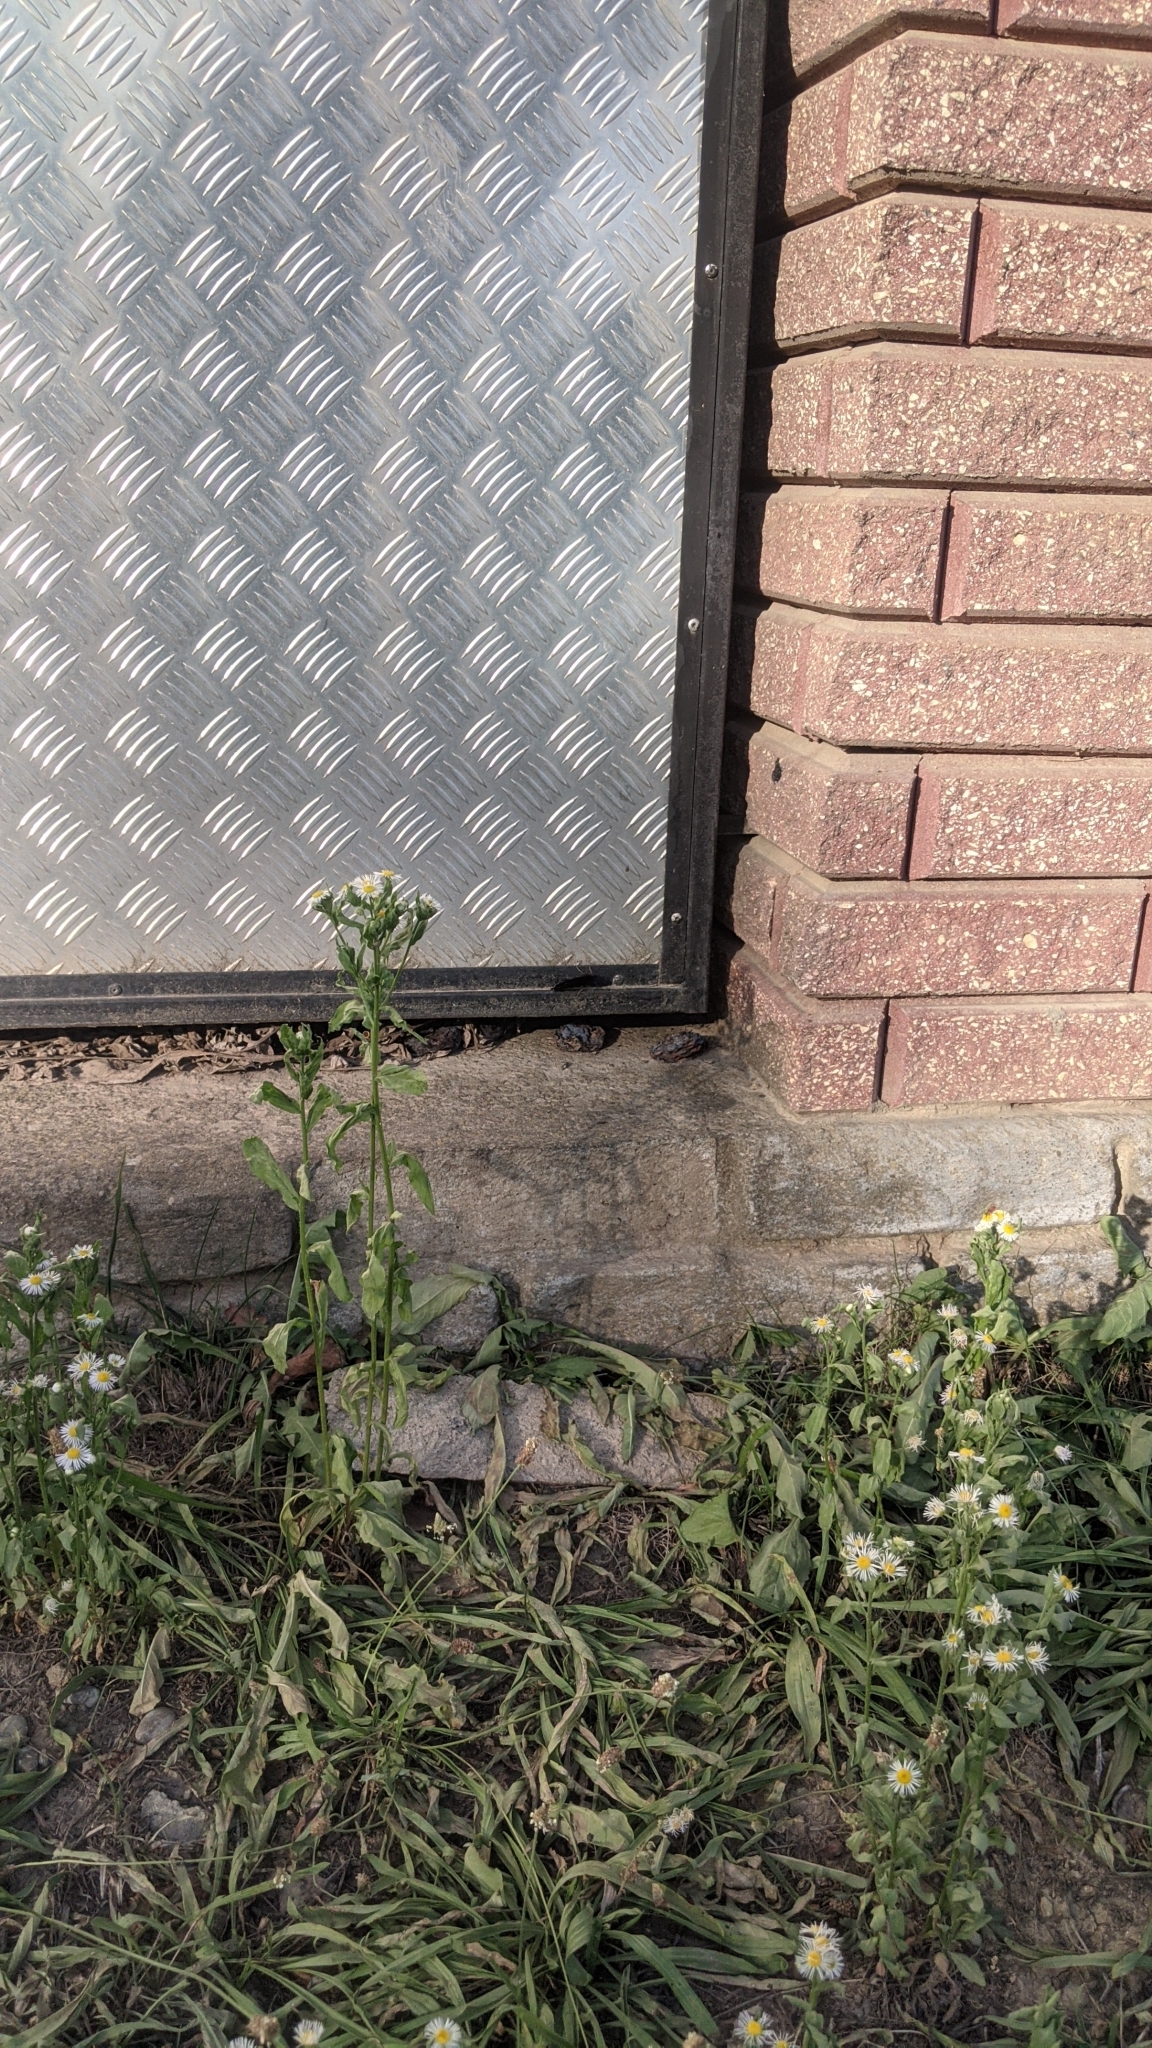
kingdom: Plantae
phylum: Tracheophyta
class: Magnoliopsida
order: Asterales
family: Asteraceae
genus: Erigeron
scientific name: Erigeron annuus
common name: Tall fleabane
